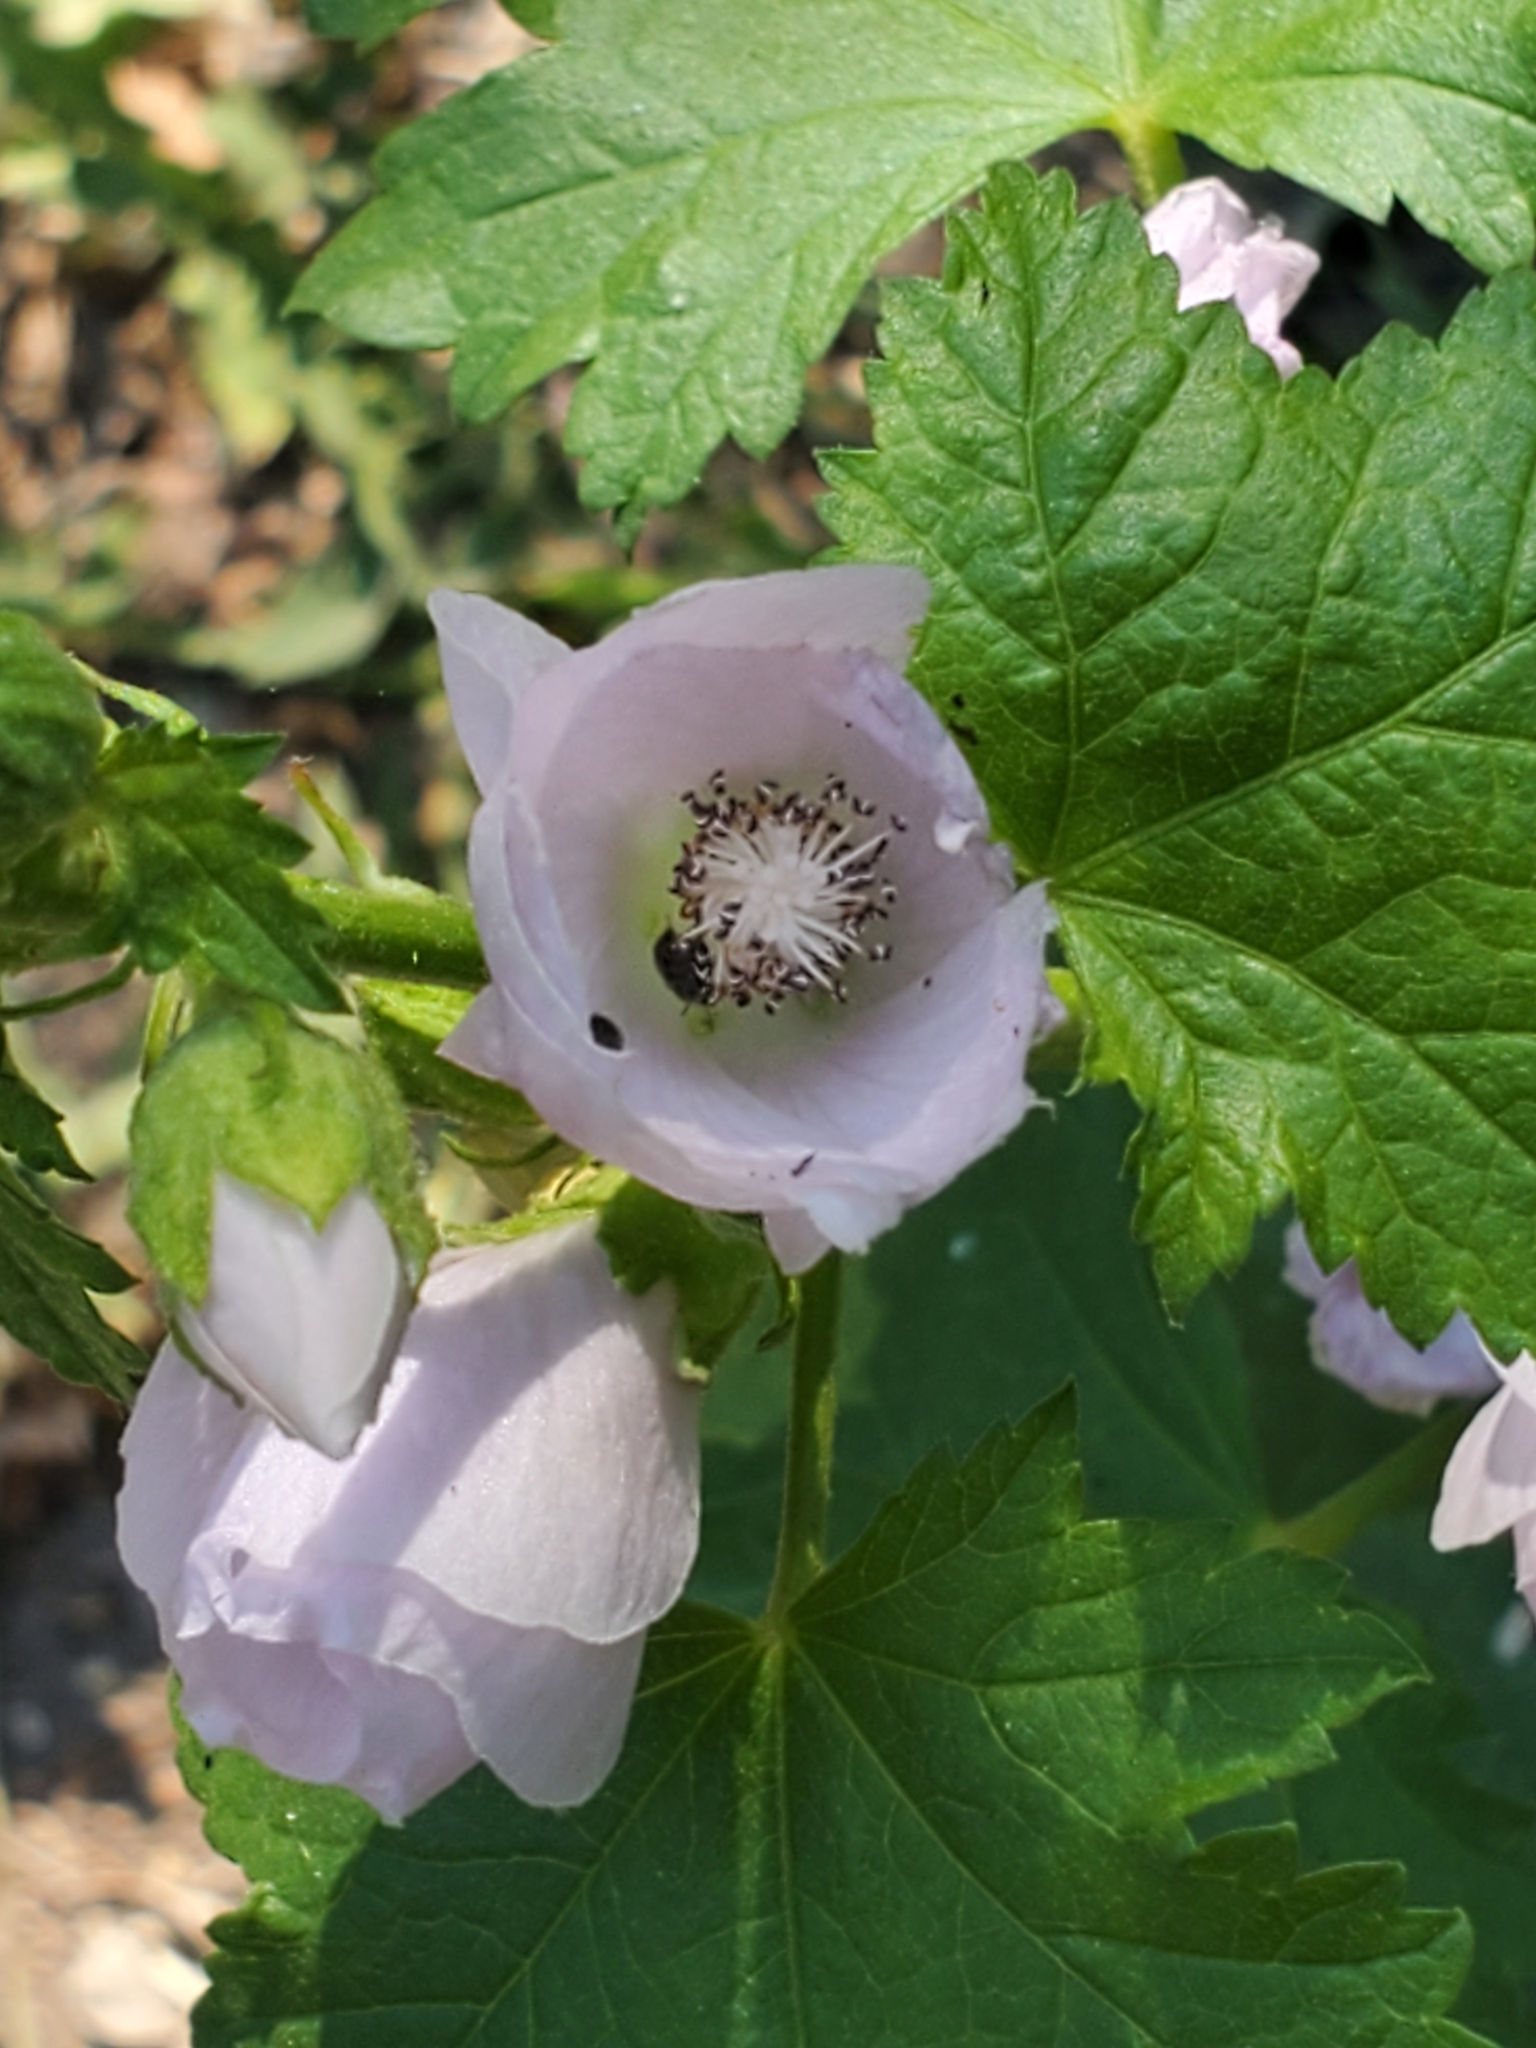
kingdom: Plantae
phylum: Tracheophyta
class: Magnoliopsida
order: Malvales
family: Malvaceae
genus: Iliamna
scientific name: Iliamna rivularis
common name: Wild hollyhock
